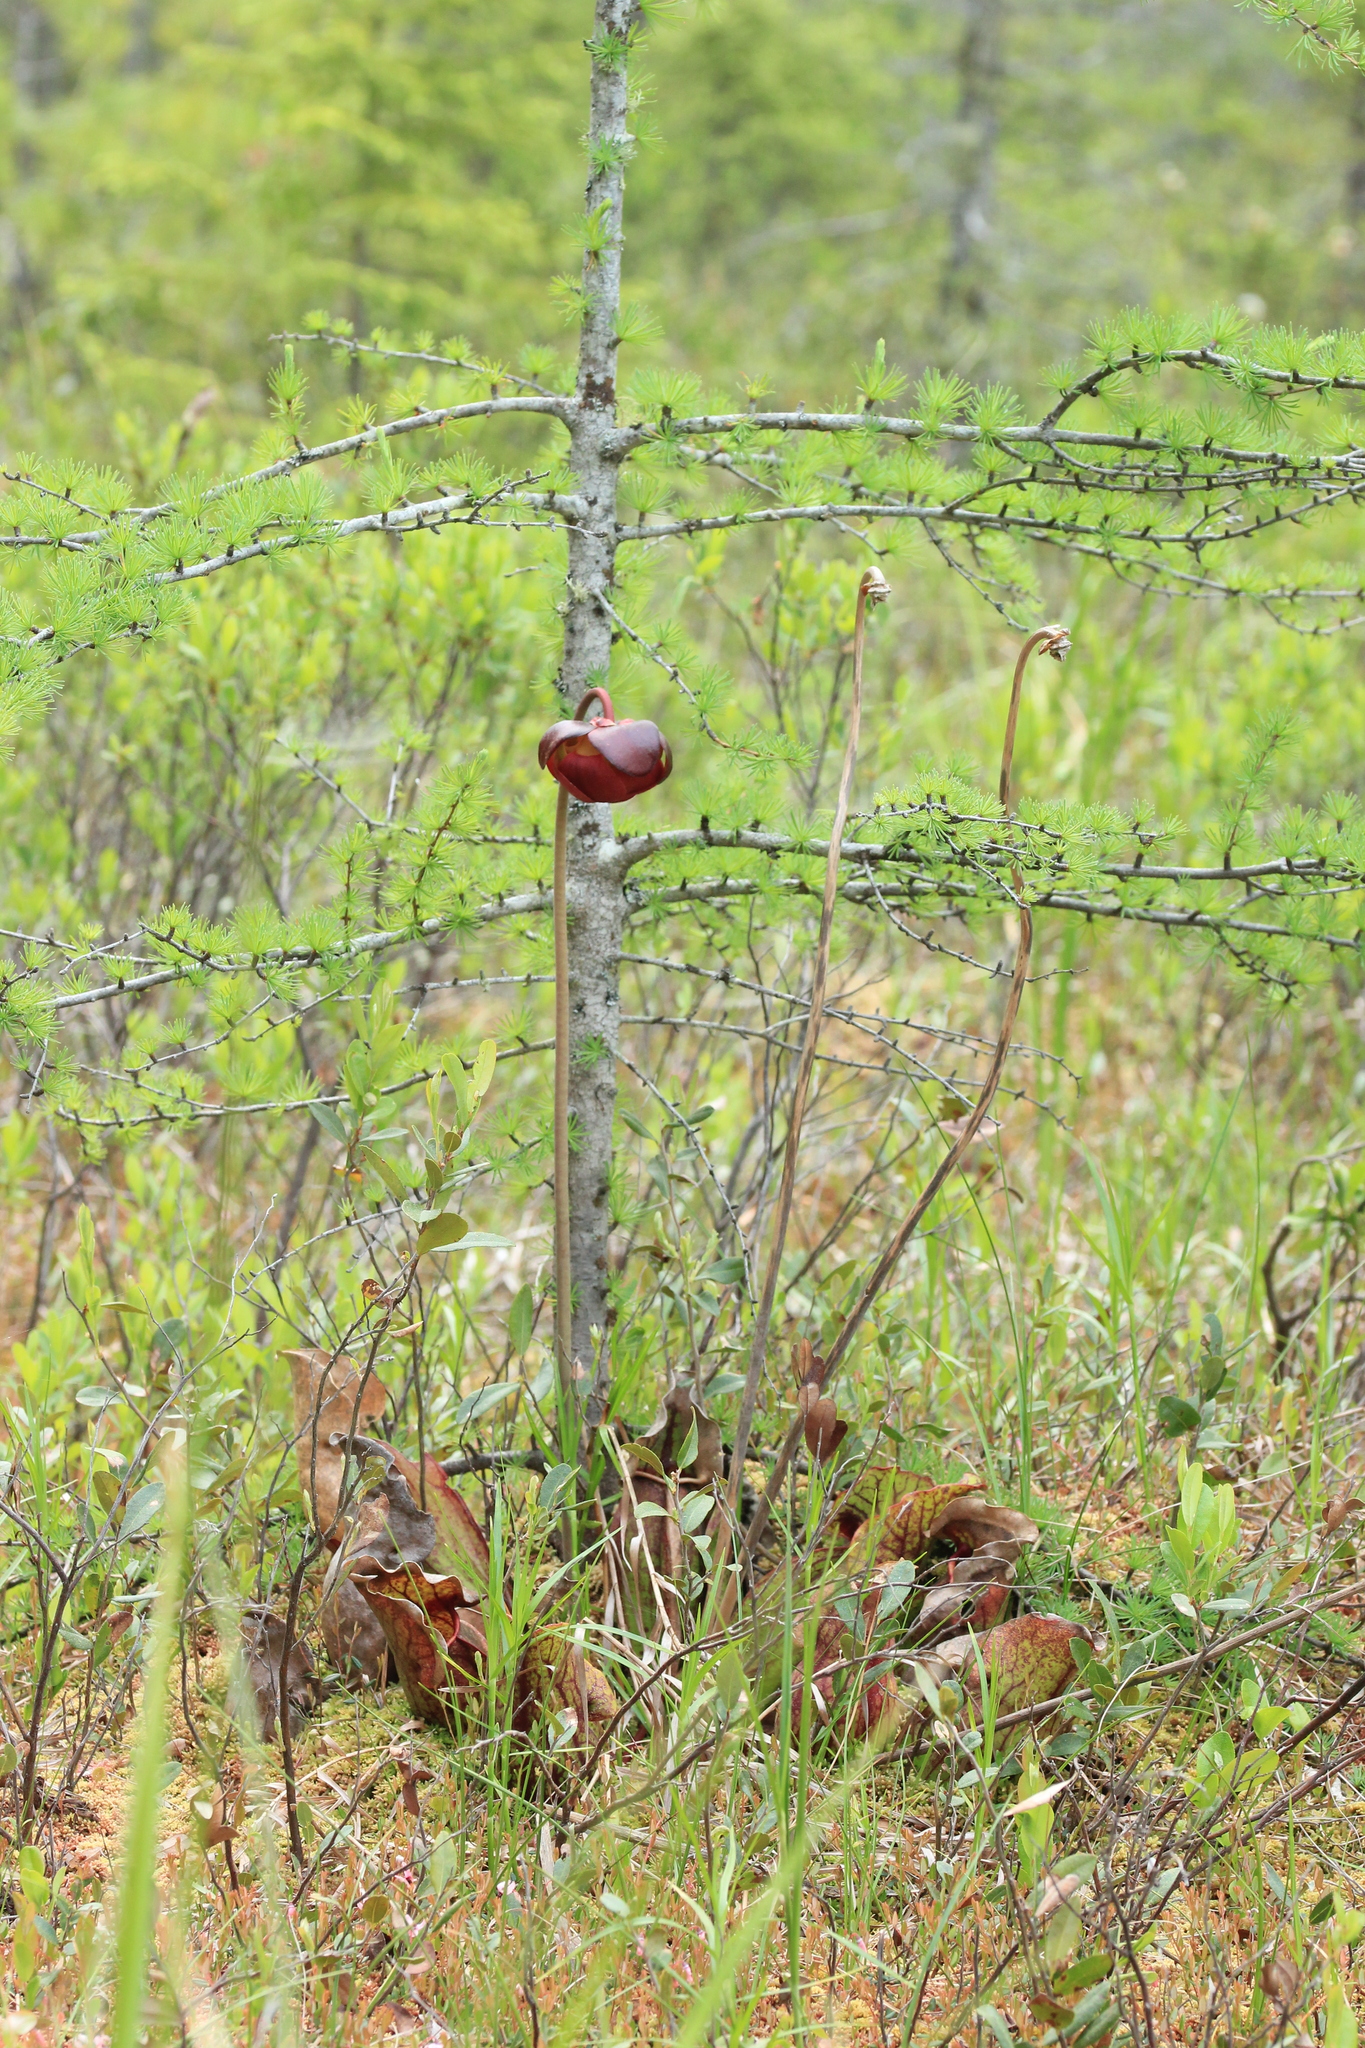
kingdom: Plantae
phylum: Tracheophyta
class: Magnoliopsida
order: Ericales
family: Sarraceniaceae
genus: Sarracenia
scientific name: Sarracenia purpurea
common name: Pitcherplant
